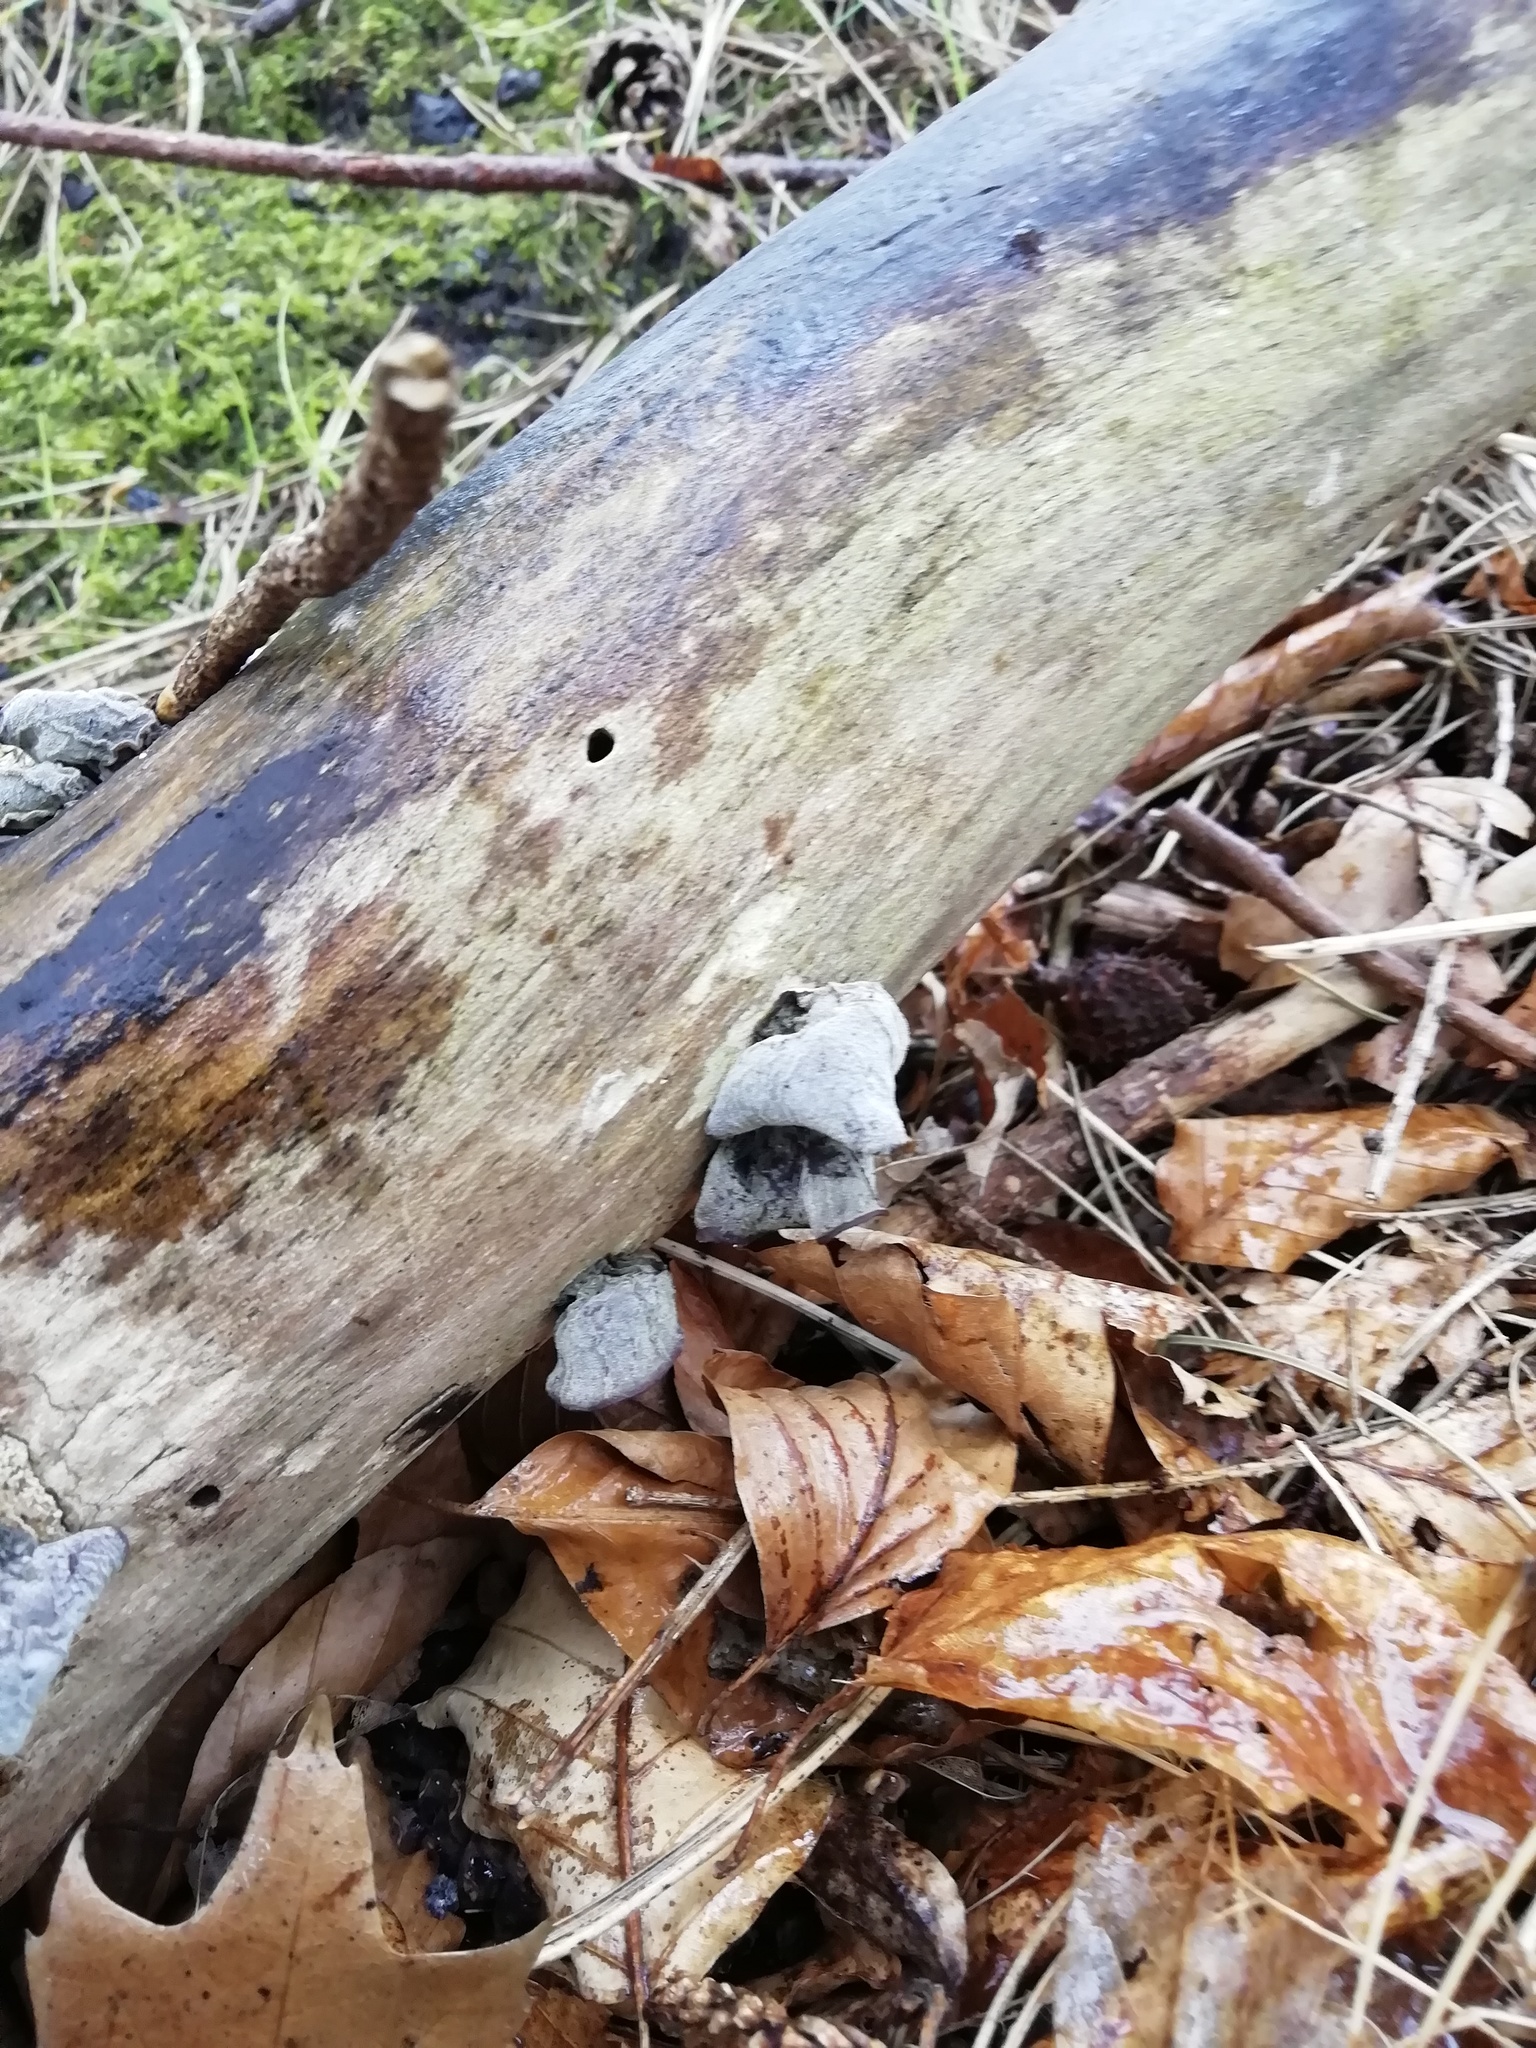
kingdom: Fungi
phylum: Basidiomycota
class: Agaricomycetes
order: Auriculariales
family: Auriculariaceae
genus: Auricularia
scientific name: Auricularia auricula-judae
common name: Jelly ear
